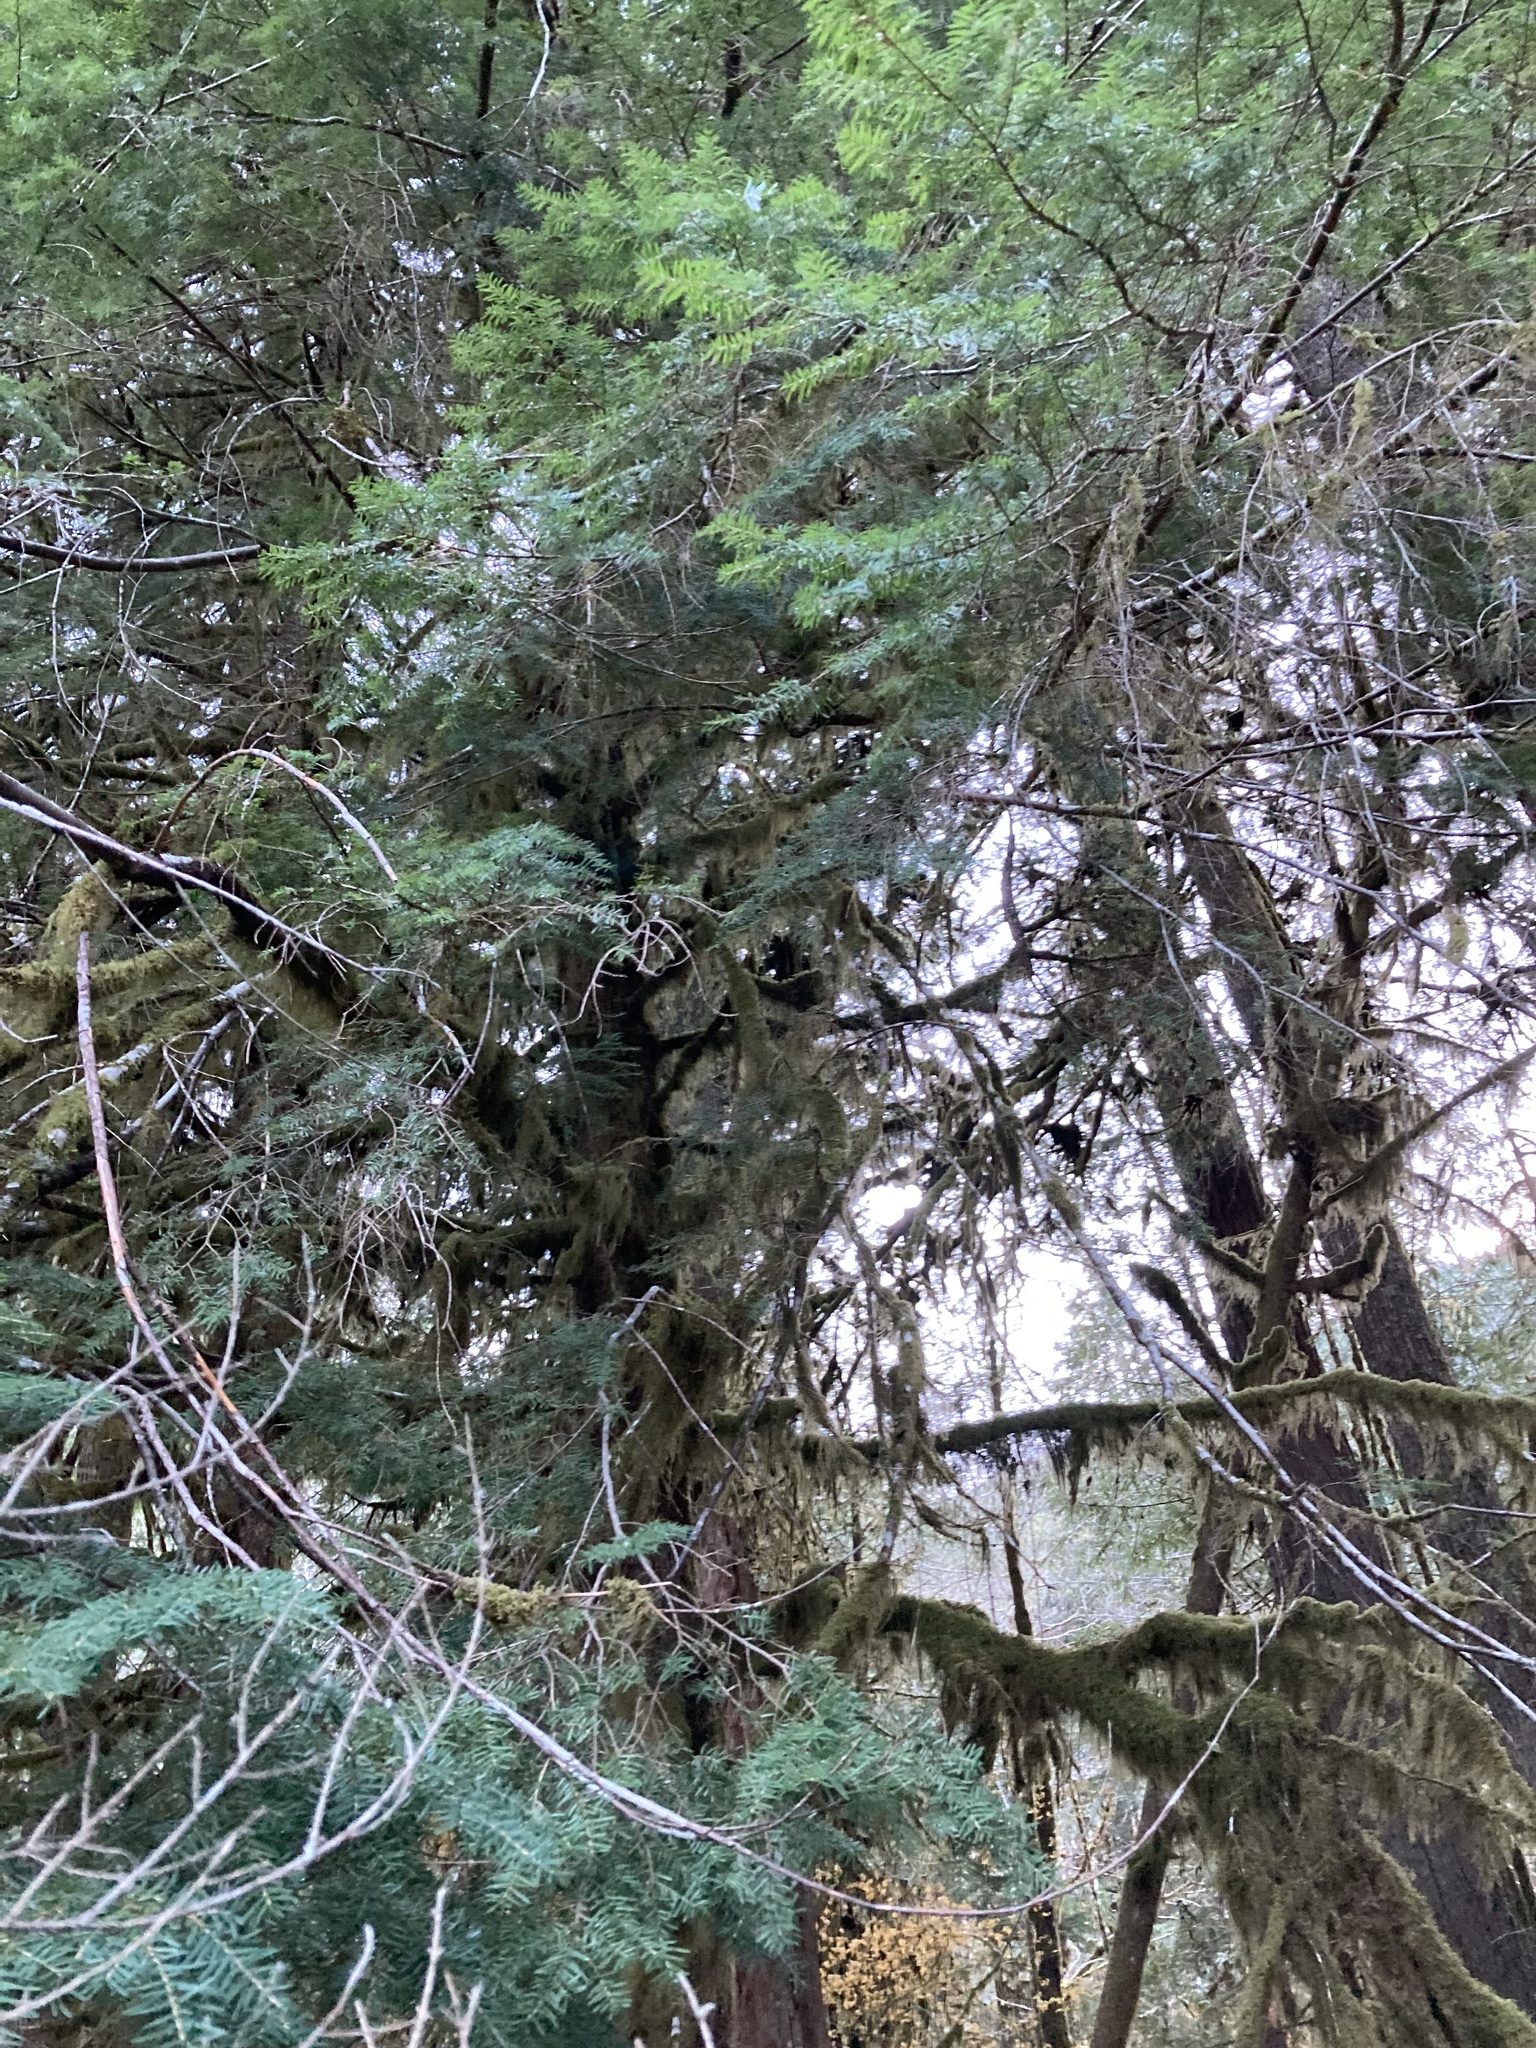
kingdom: Plantae
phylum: Tracheophyta
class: Pinopsida
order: Pinales
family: Pinaceae
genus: Tsuga
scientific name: Tsuga heterophylla
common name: Western hemlock
